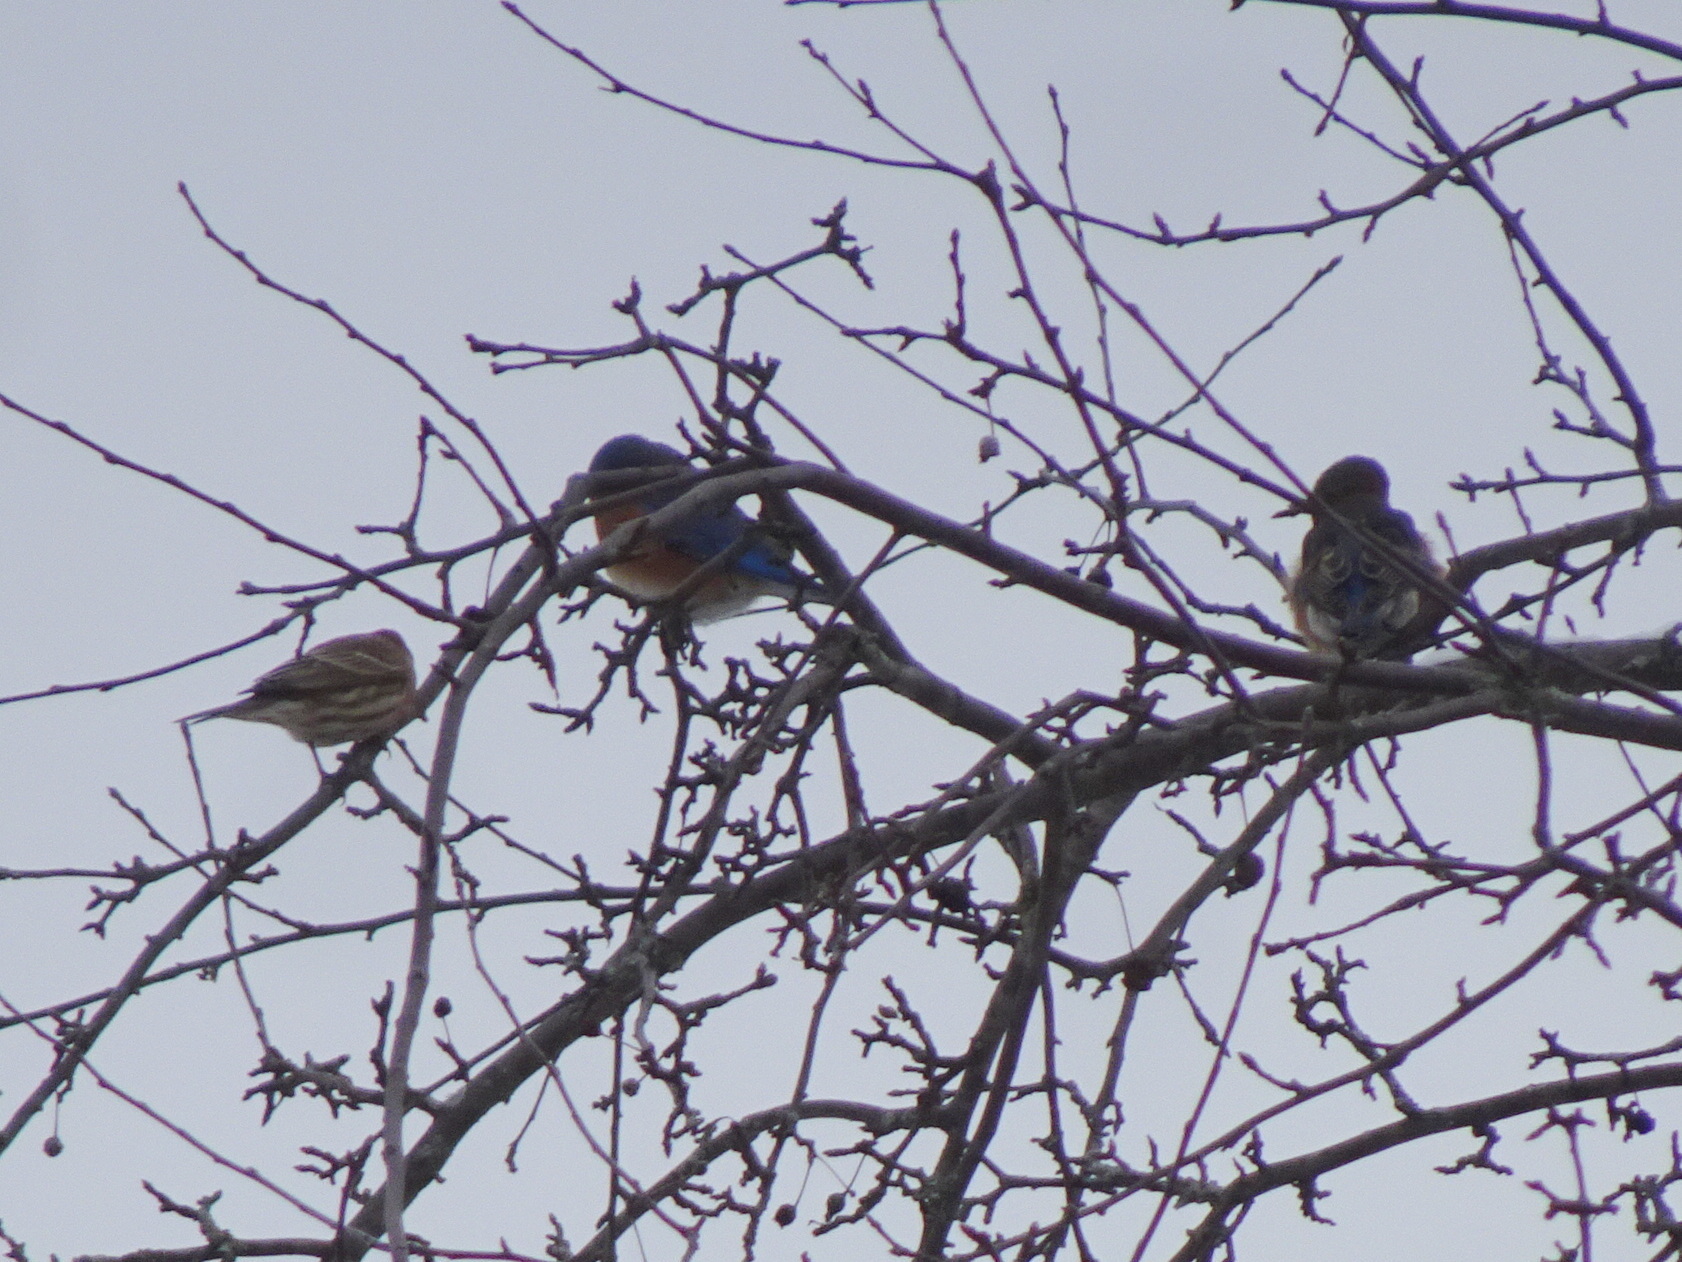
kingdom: Animalia
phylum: Chordata
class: Aves
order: Passeriformes
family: Fringillidae
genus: Haemorhous
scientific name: Haemorhous mexicanus
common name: House finch
